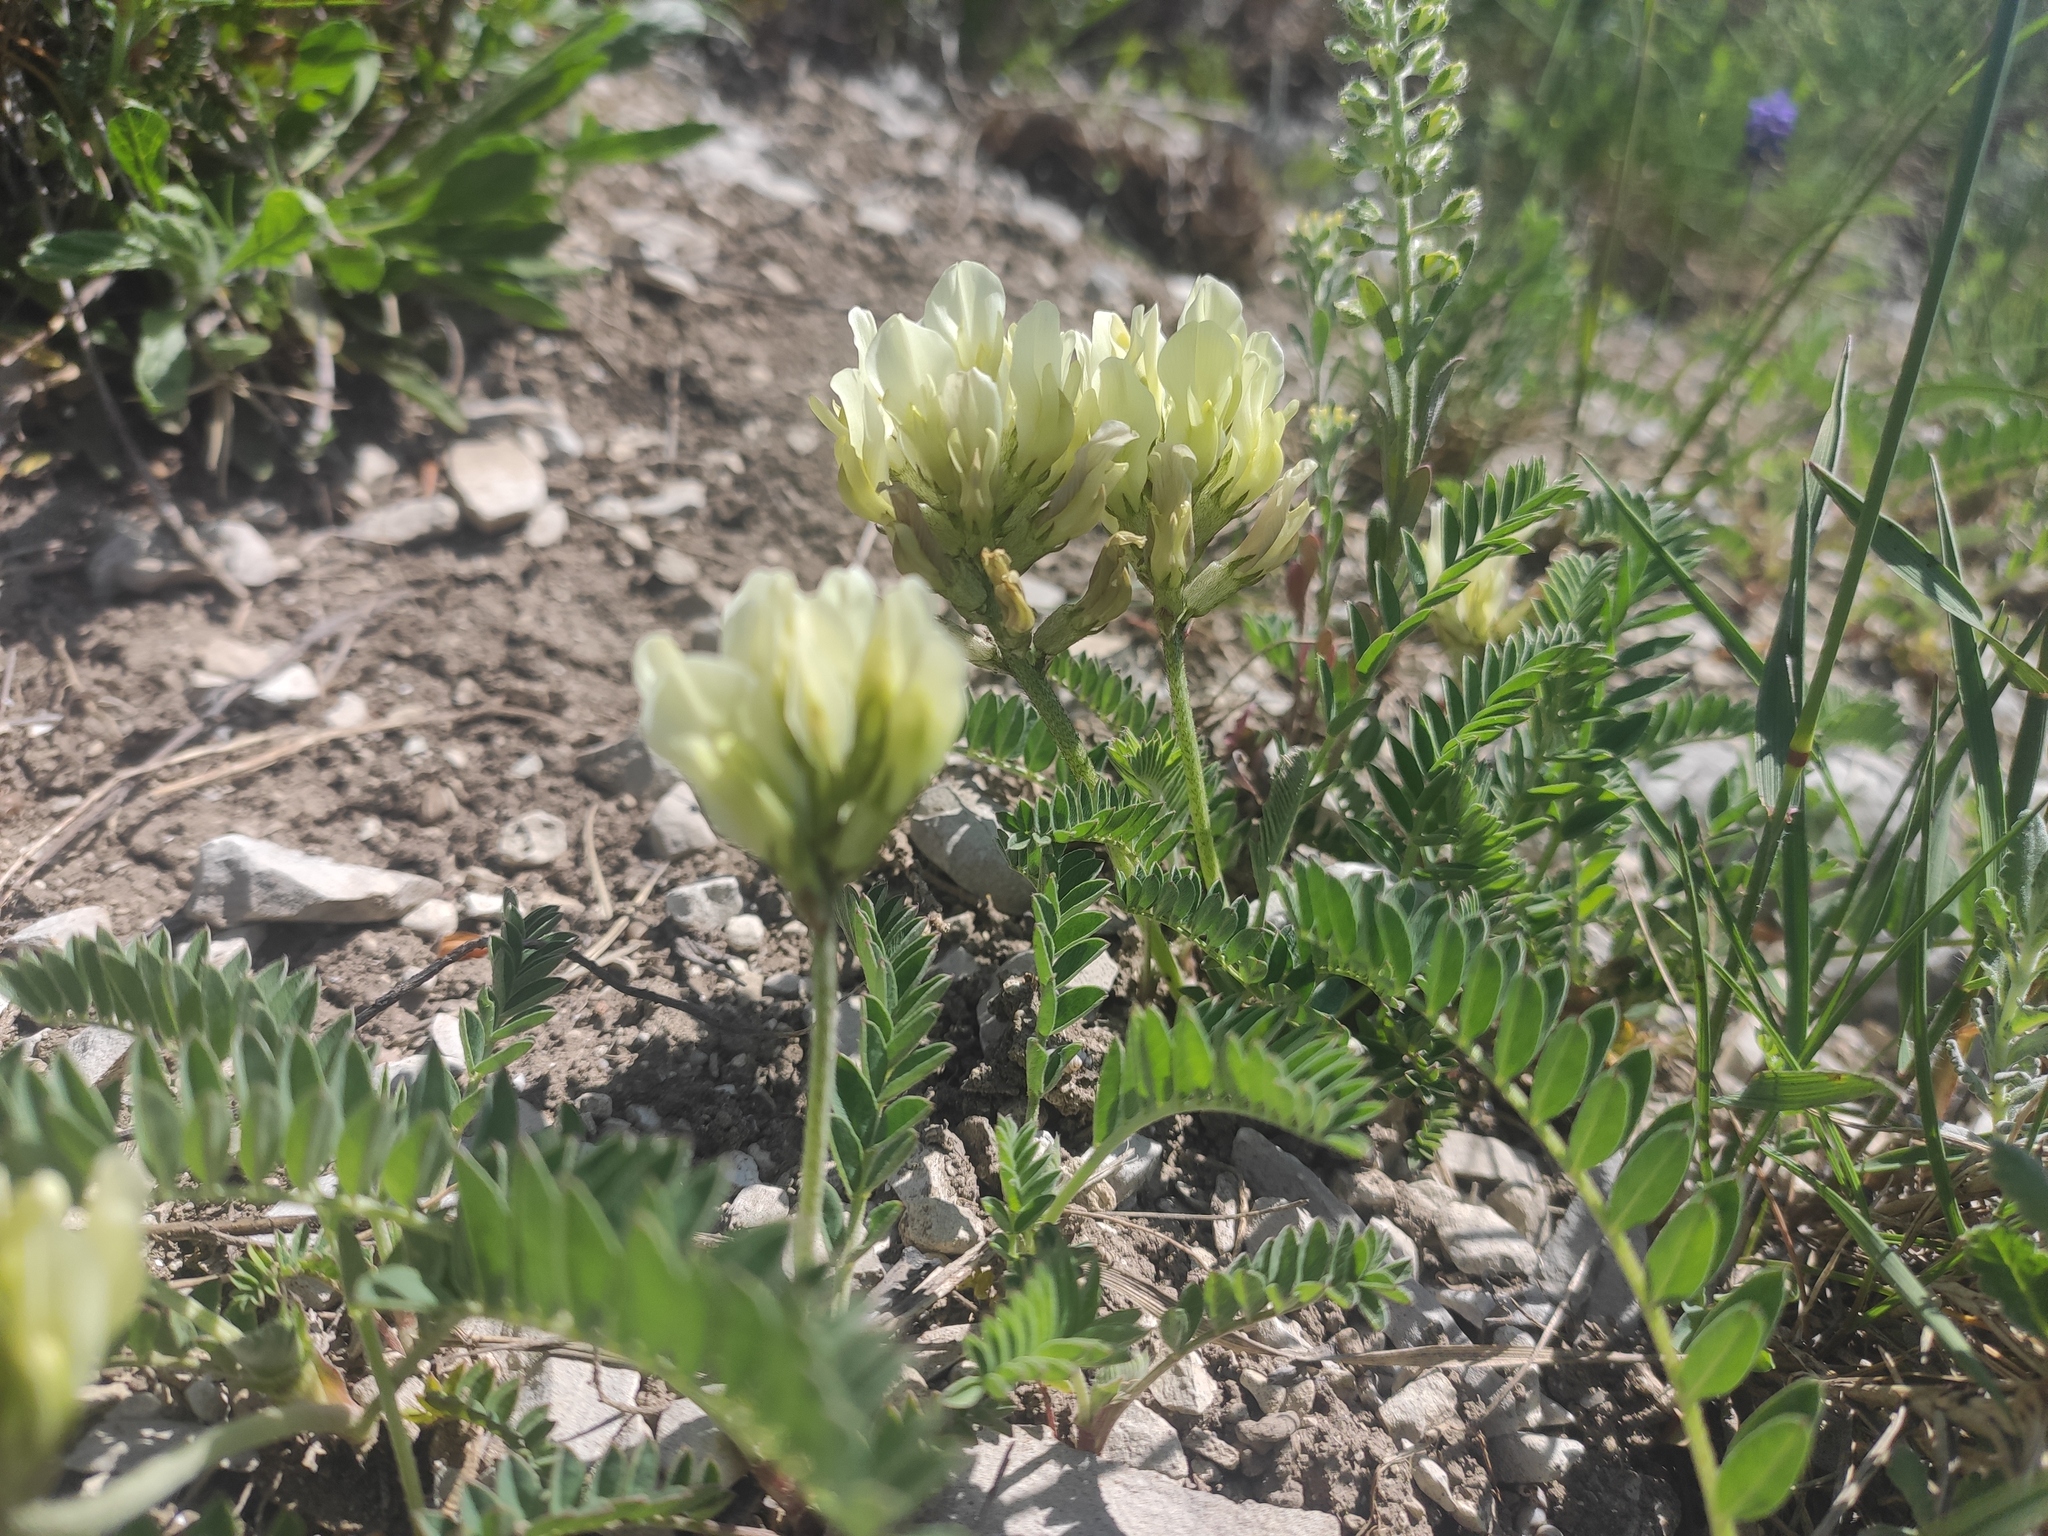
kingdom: Plantae
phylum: Tracheophyta
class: Magnoliopsida
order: Fabales
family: Fabaceae
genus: Astragalus
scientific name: Astragalus captiosus
